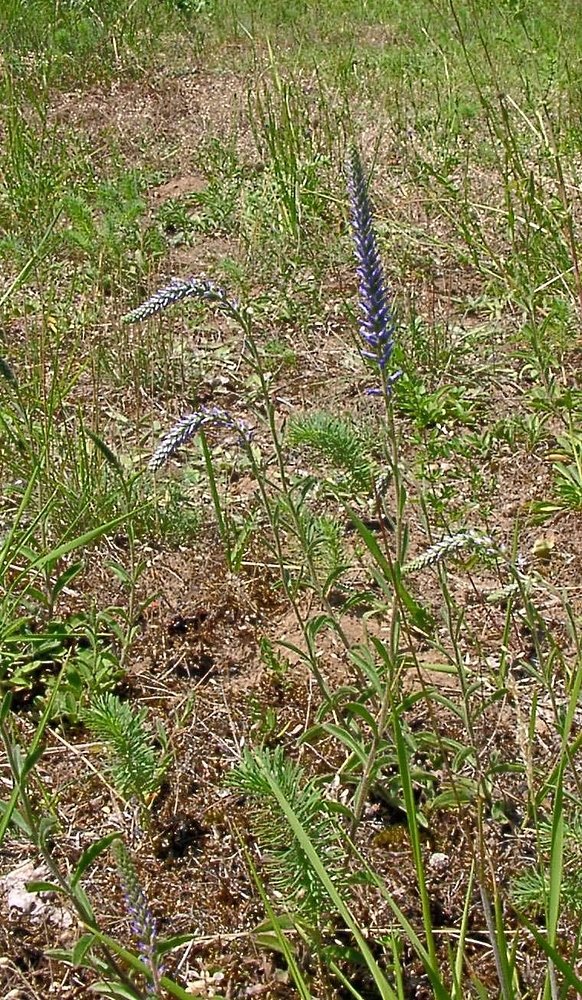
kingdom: Plantae
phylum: Tracheophyta
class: Magnoliopsida
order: Lamiales
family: Plantaginaceae
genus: Veronica
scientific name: Veronica spicata
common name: Spiked speedwell
